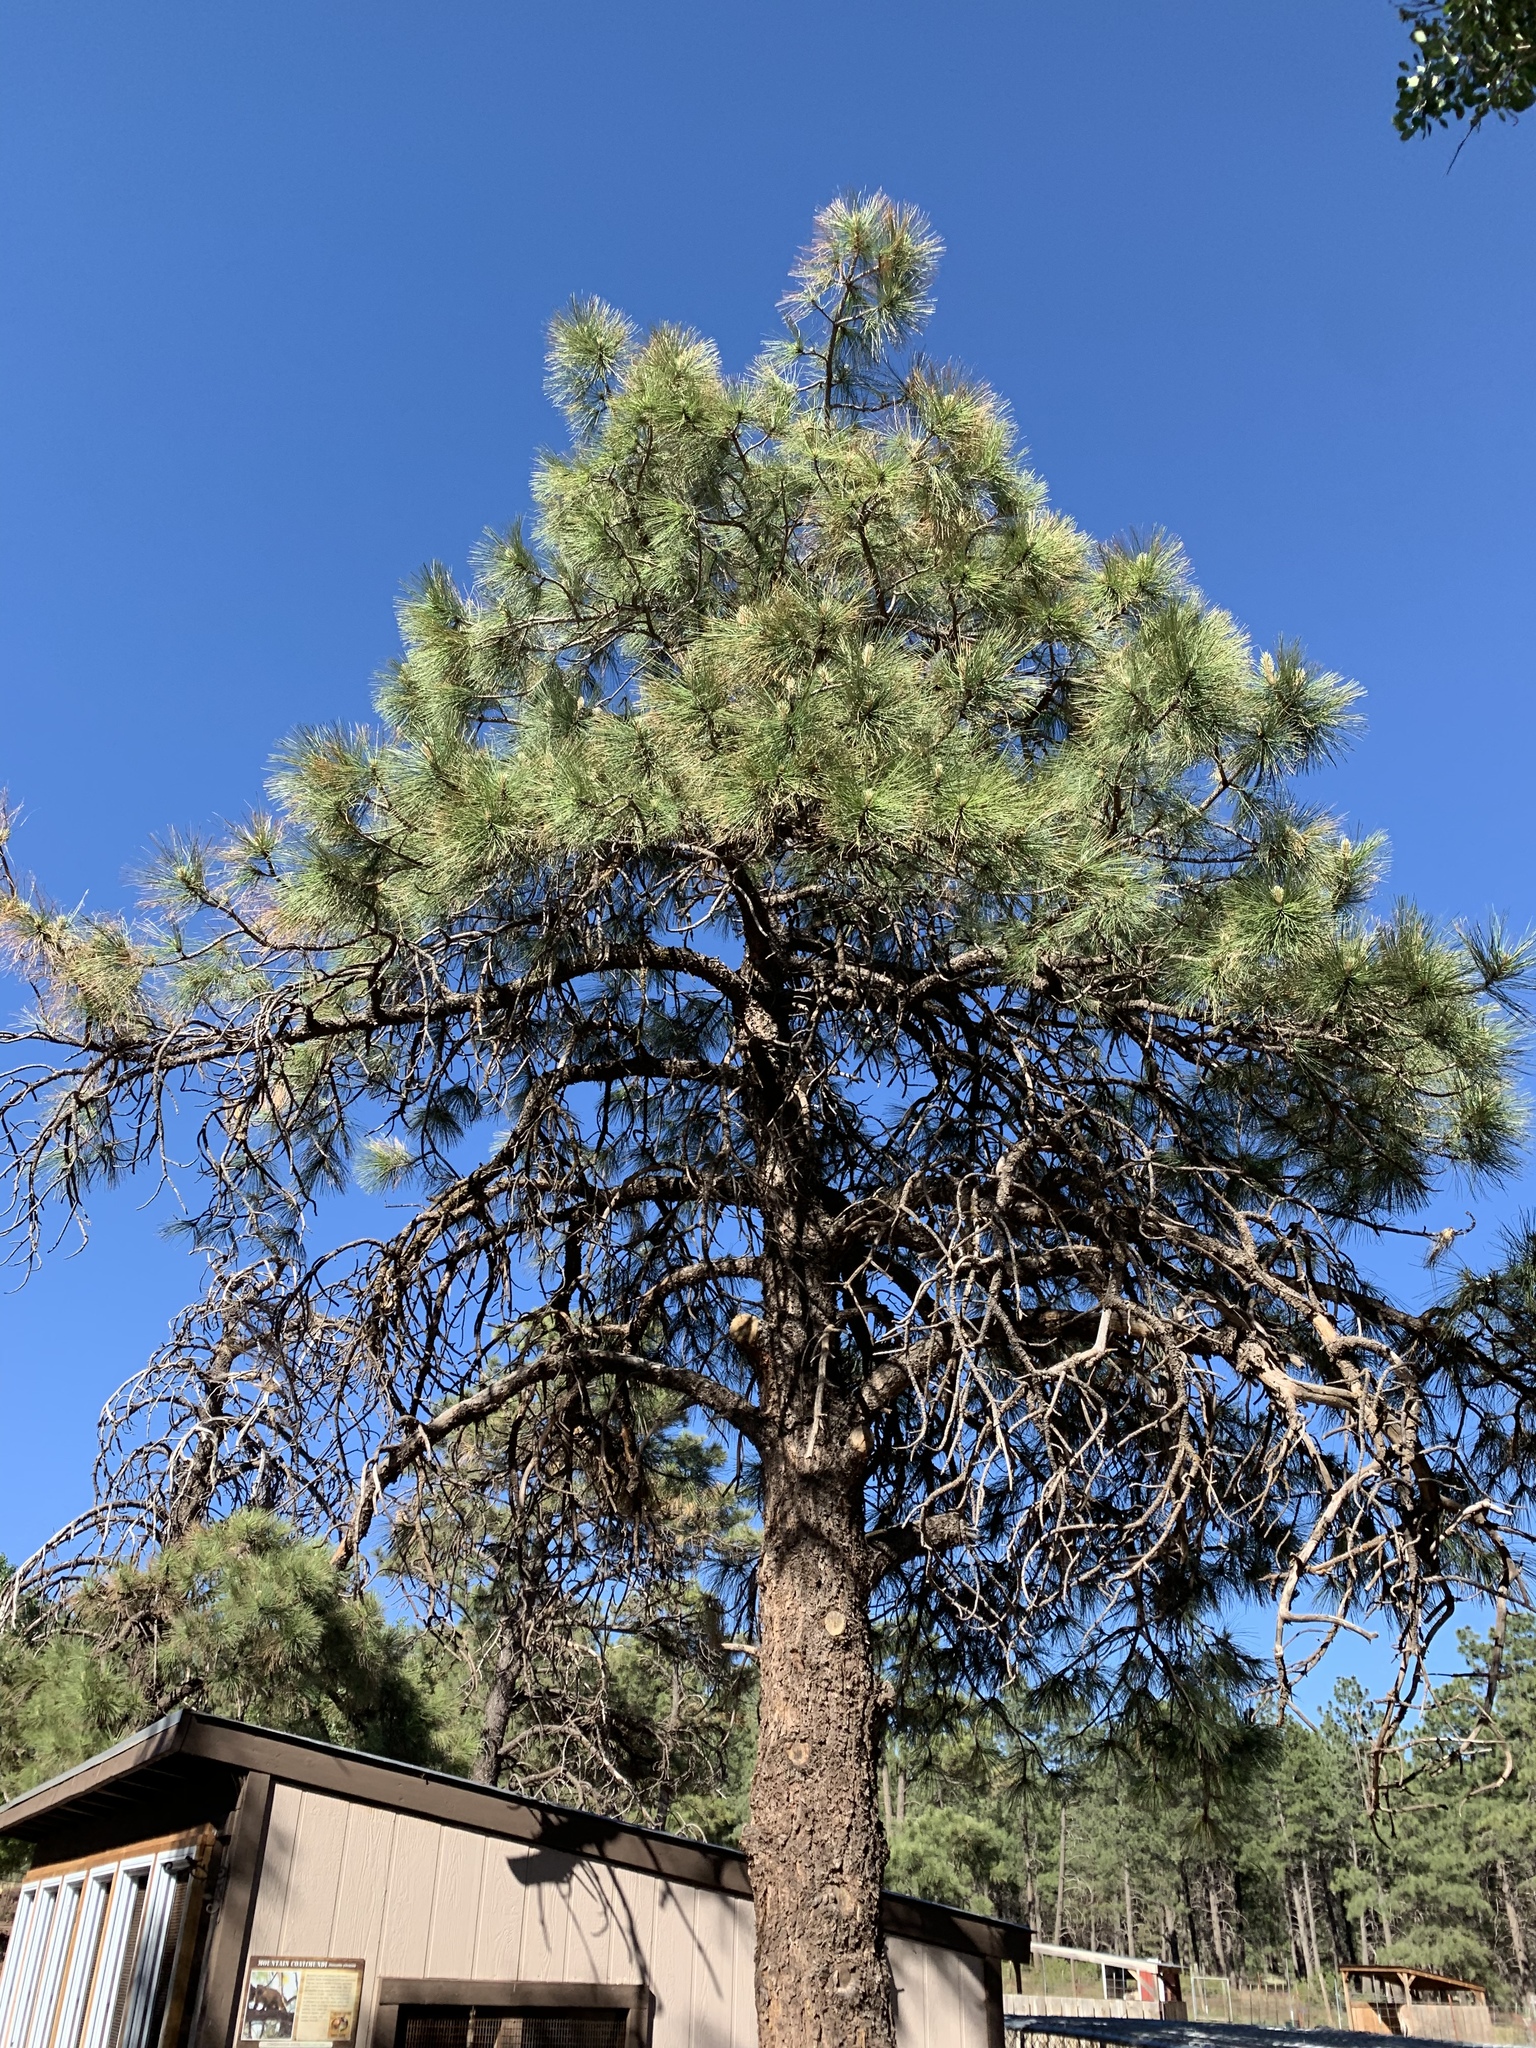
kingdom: Plantae
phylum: Tracheophyta
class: Pinopsida
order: Pinales
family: Pinaceae
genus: Pinus
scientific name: Pinus ponderosa
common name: Western yellow-pine
